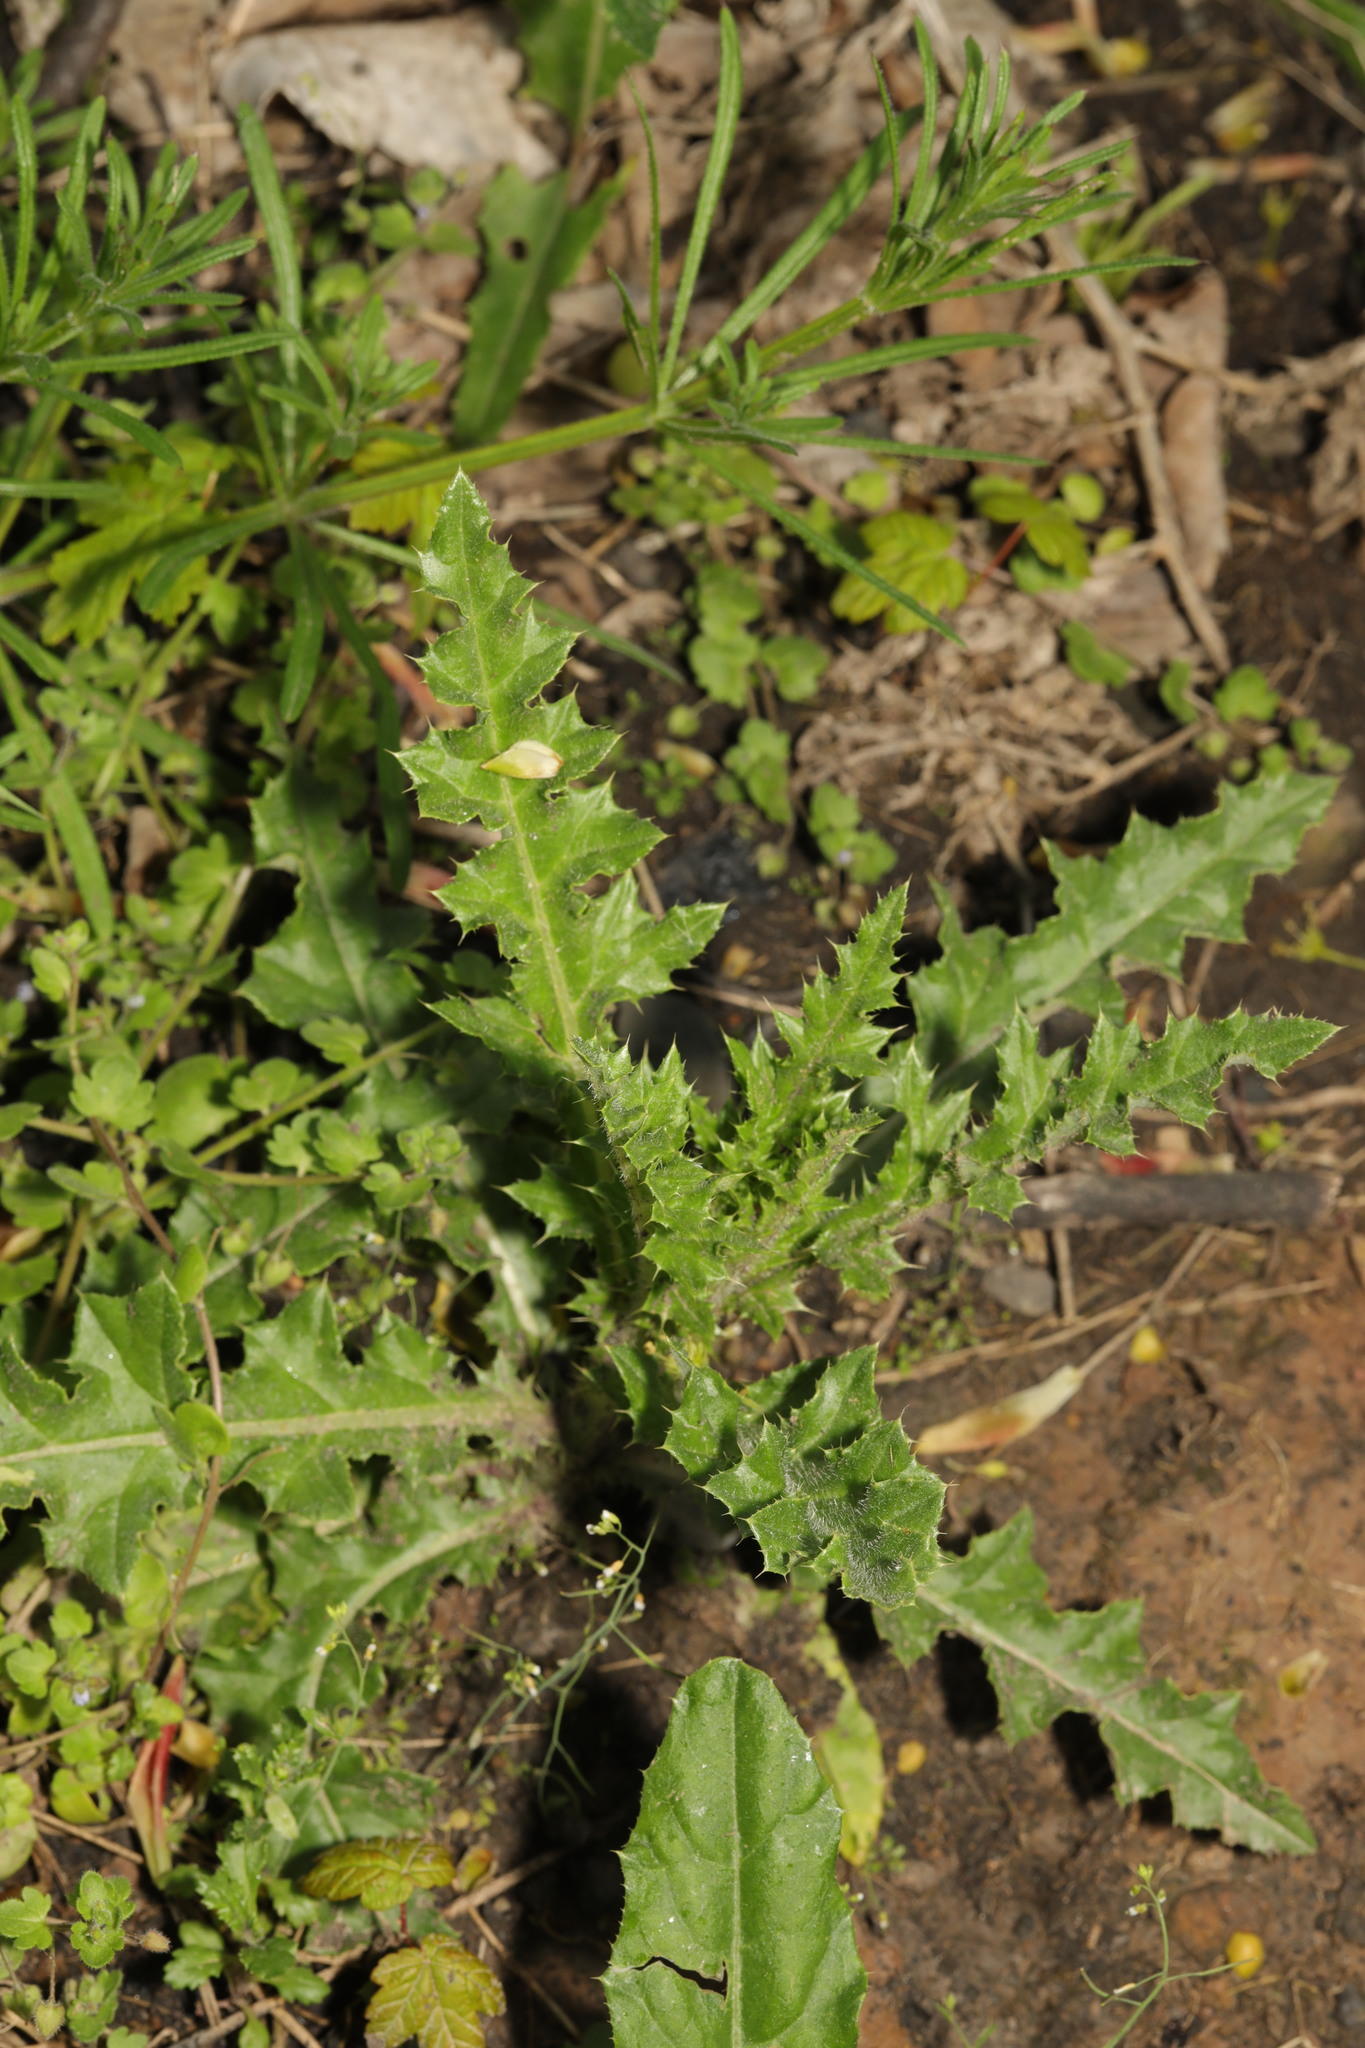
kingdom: Plantae
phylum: Tracheophyta
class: Magnoliopsida
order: Asterales
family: Asteraceae
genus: Cirsium
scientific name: Cirsium arvense
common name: Creeping thistle
